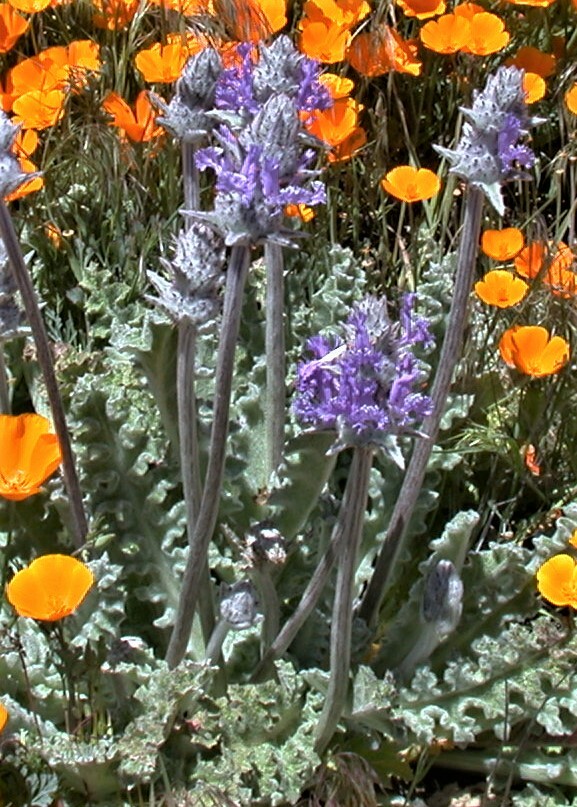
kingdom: Plantae
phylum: Tracheophyta
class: Magnoliopsida
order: Lamiales
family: Lamiaceae
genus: Salvia
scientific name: Salvia carduacea
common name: Thistle sage
